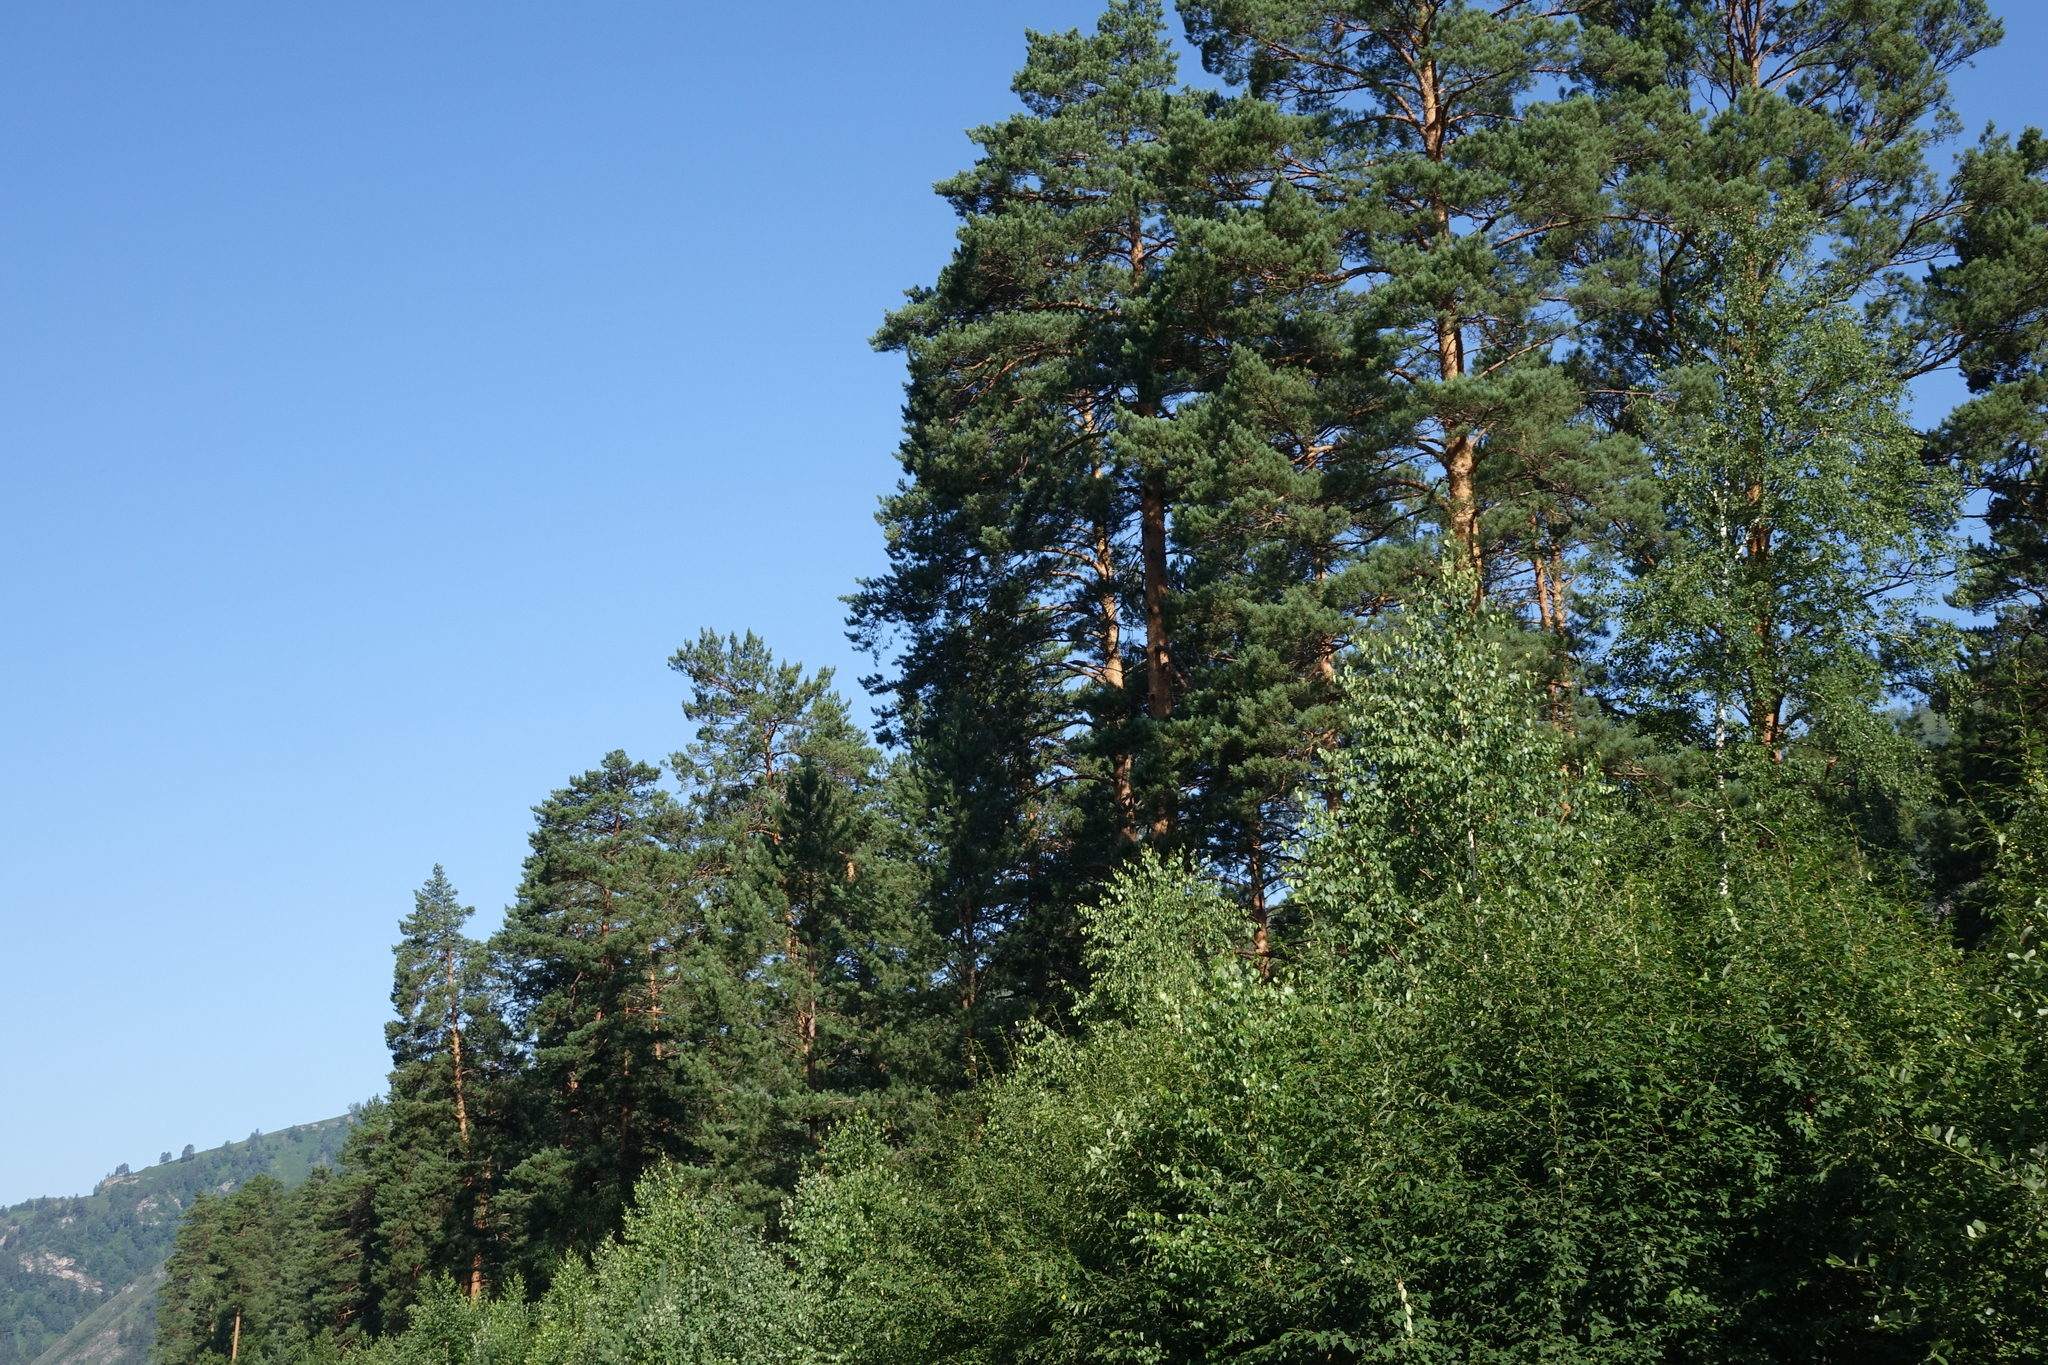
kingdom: Plantae
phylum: Tracheophyta
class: Pinopsida
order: Pinales
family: Pinaceae
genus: Pinus
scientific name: Pinus sylvestris
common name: Scots pine
